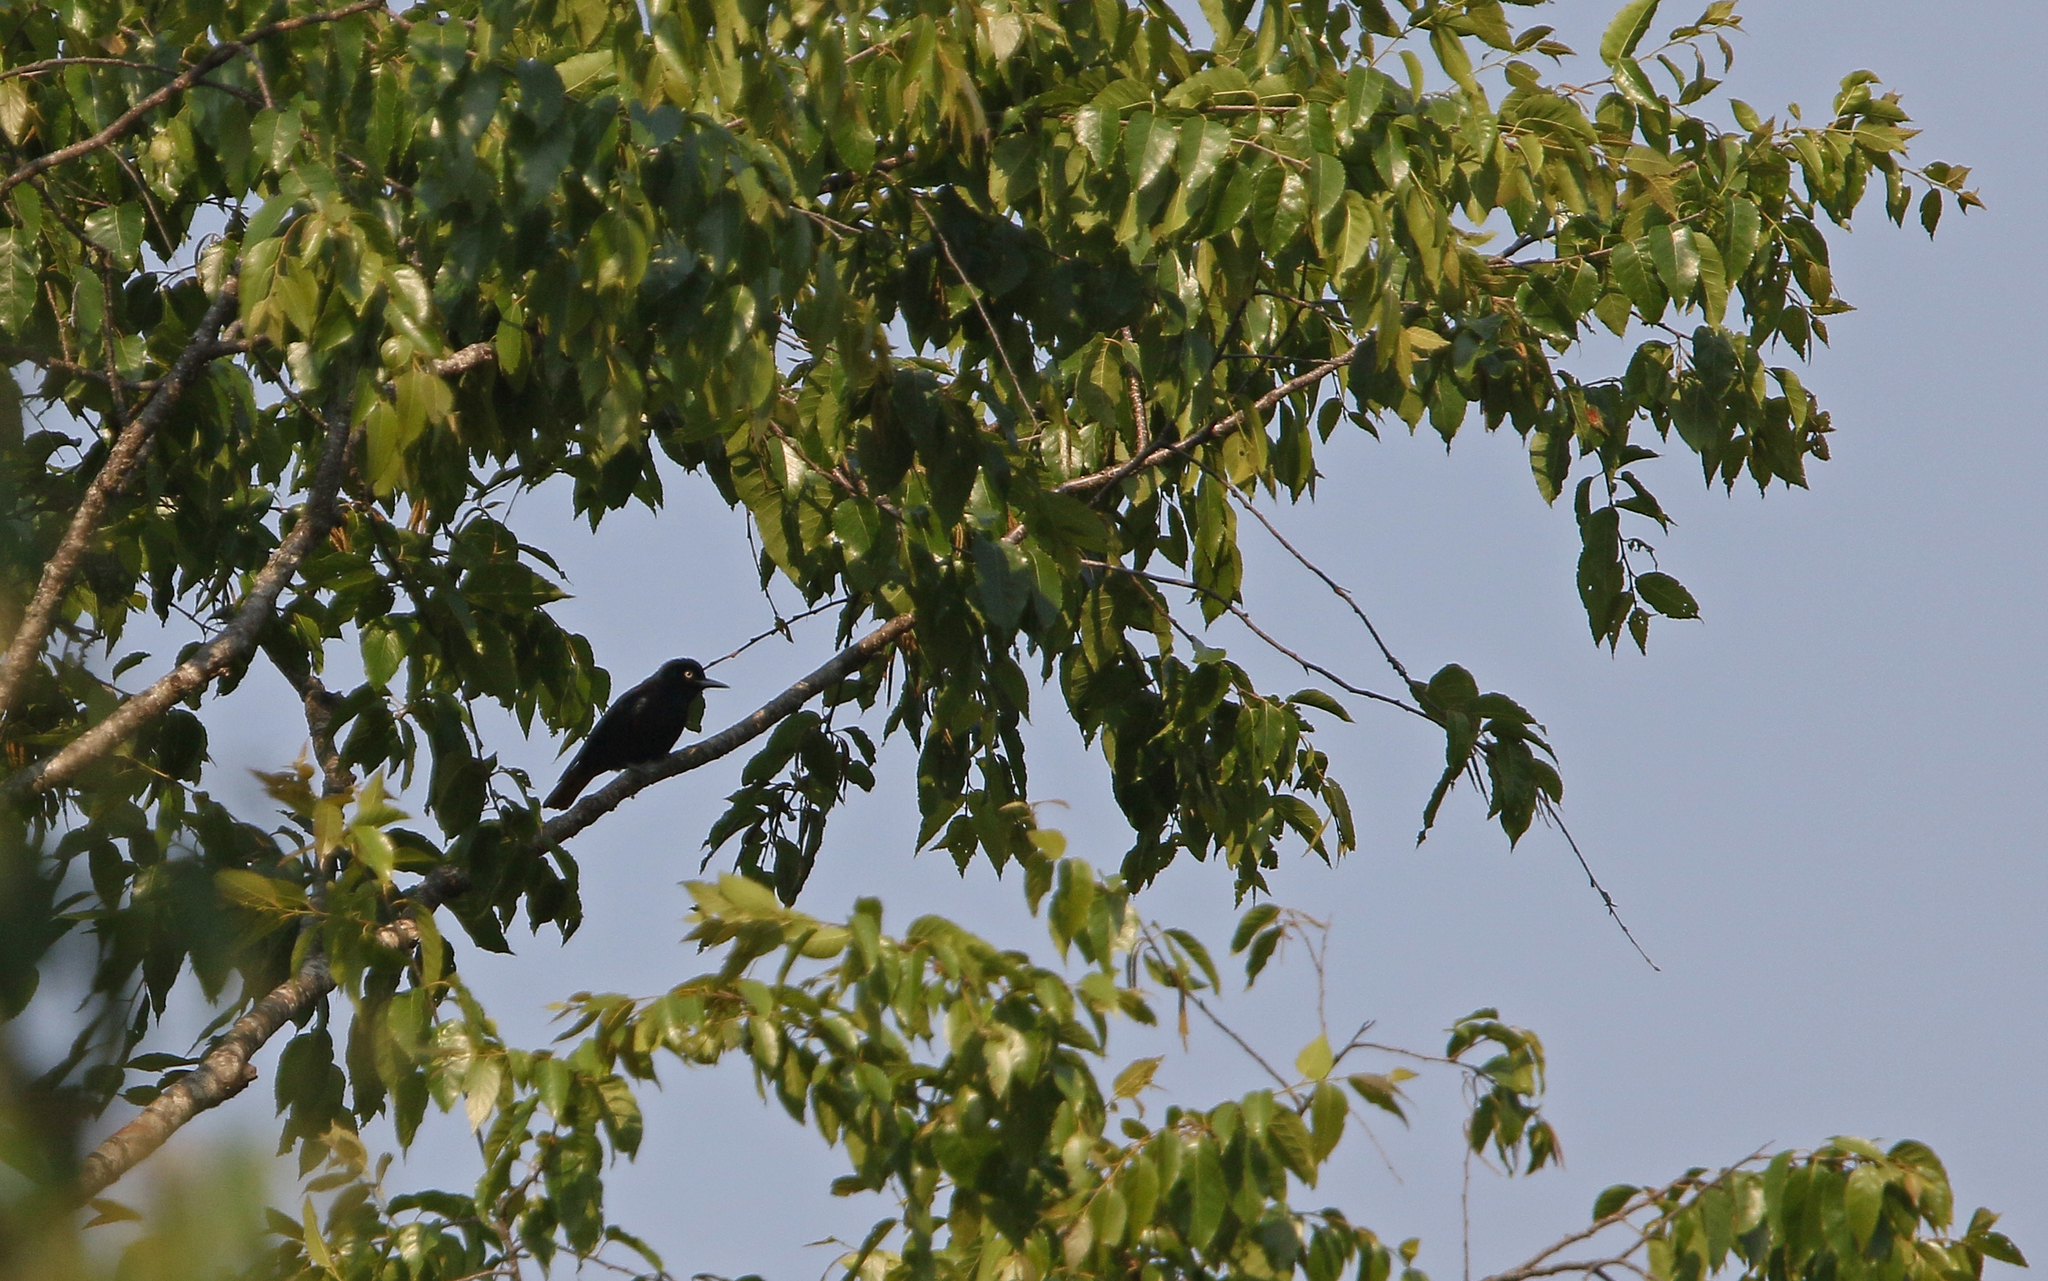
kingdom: Animalia
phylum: Chordata
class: Aves
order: Passeriformes
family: Oriolidae
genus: Oriolus
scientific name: Oriolus traillii
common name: Maroon oriole
